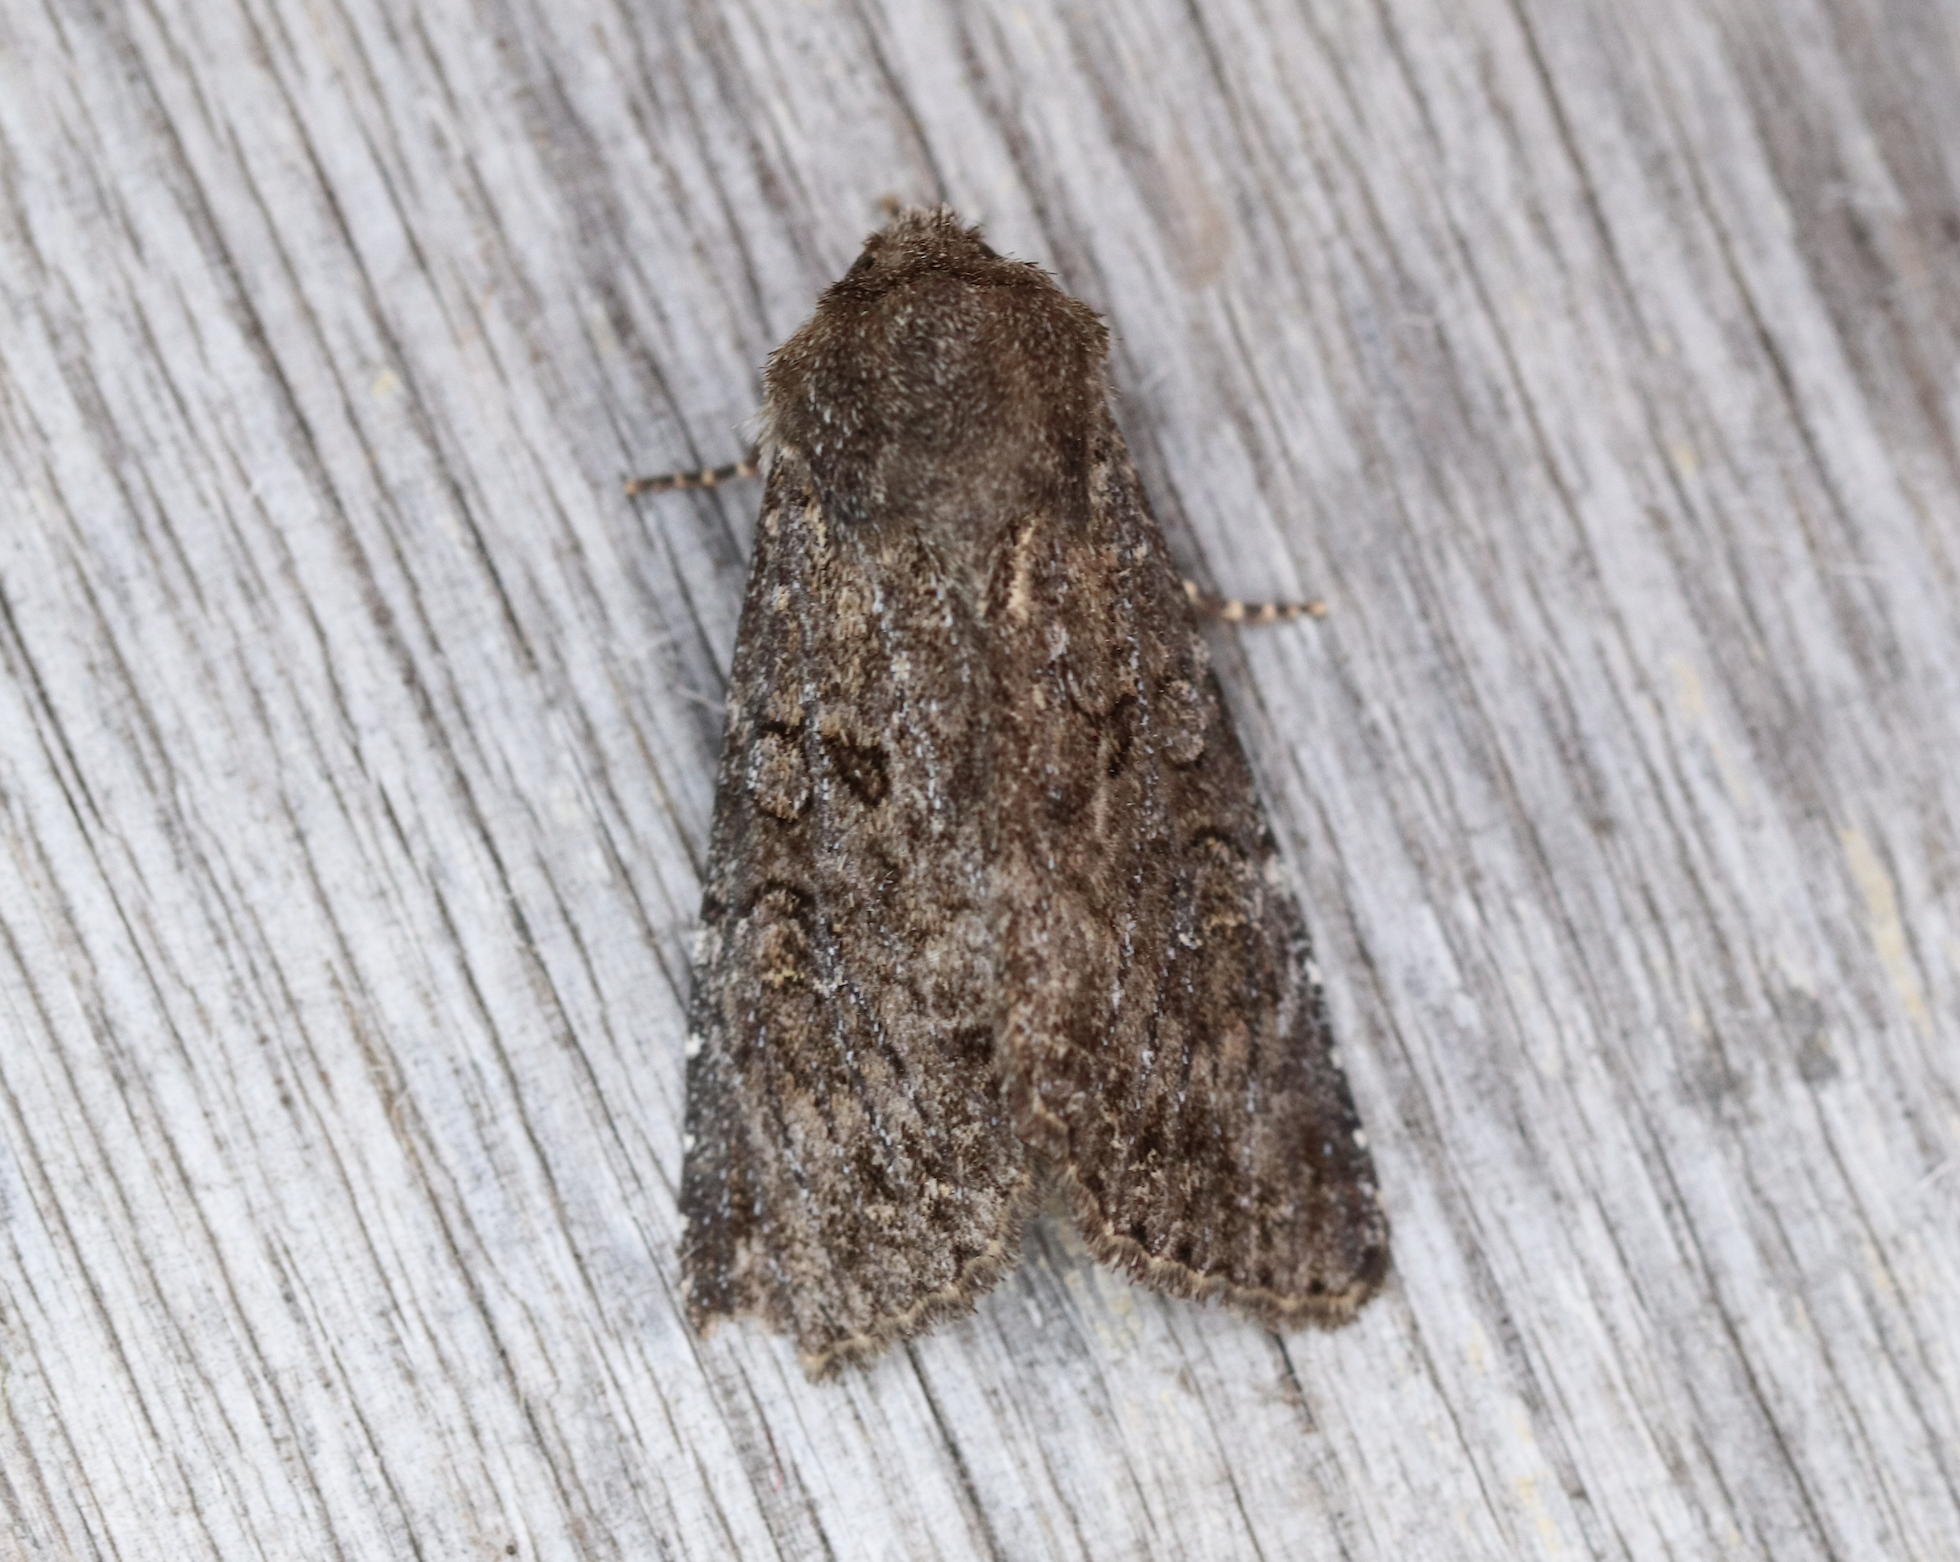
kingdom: Animalia
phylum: Arthropoda
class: Insecta
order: Lepidoptera
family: Noctuidae
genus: Apamea
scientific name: Apamea maillardi
